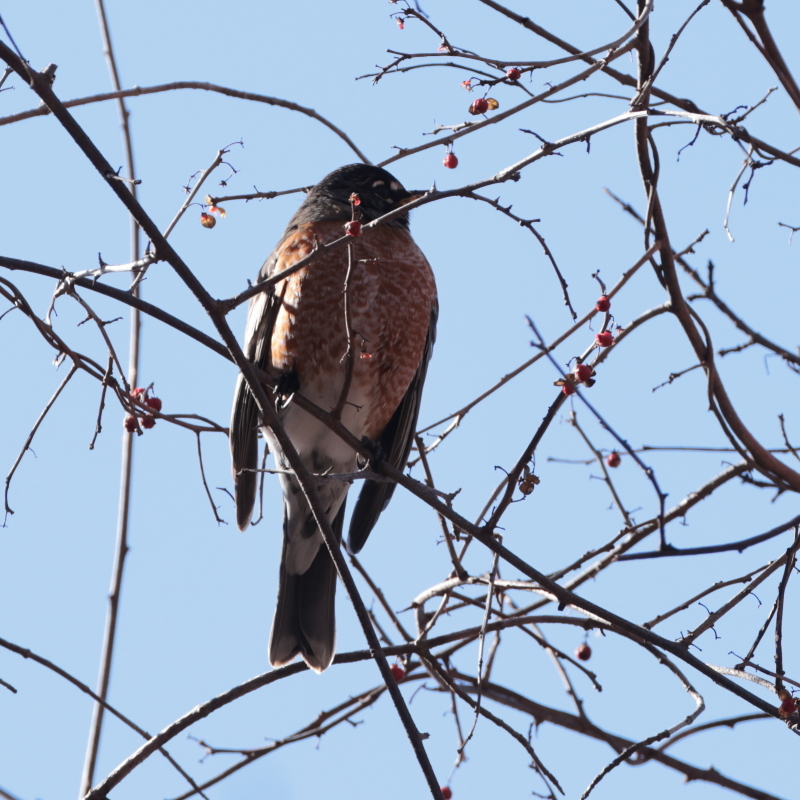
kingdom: Animalia
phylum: Chordata
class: Aves
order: Passeriformes
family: Turdidae
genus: Turdus
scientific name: Turdus migratorius
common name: American robin
